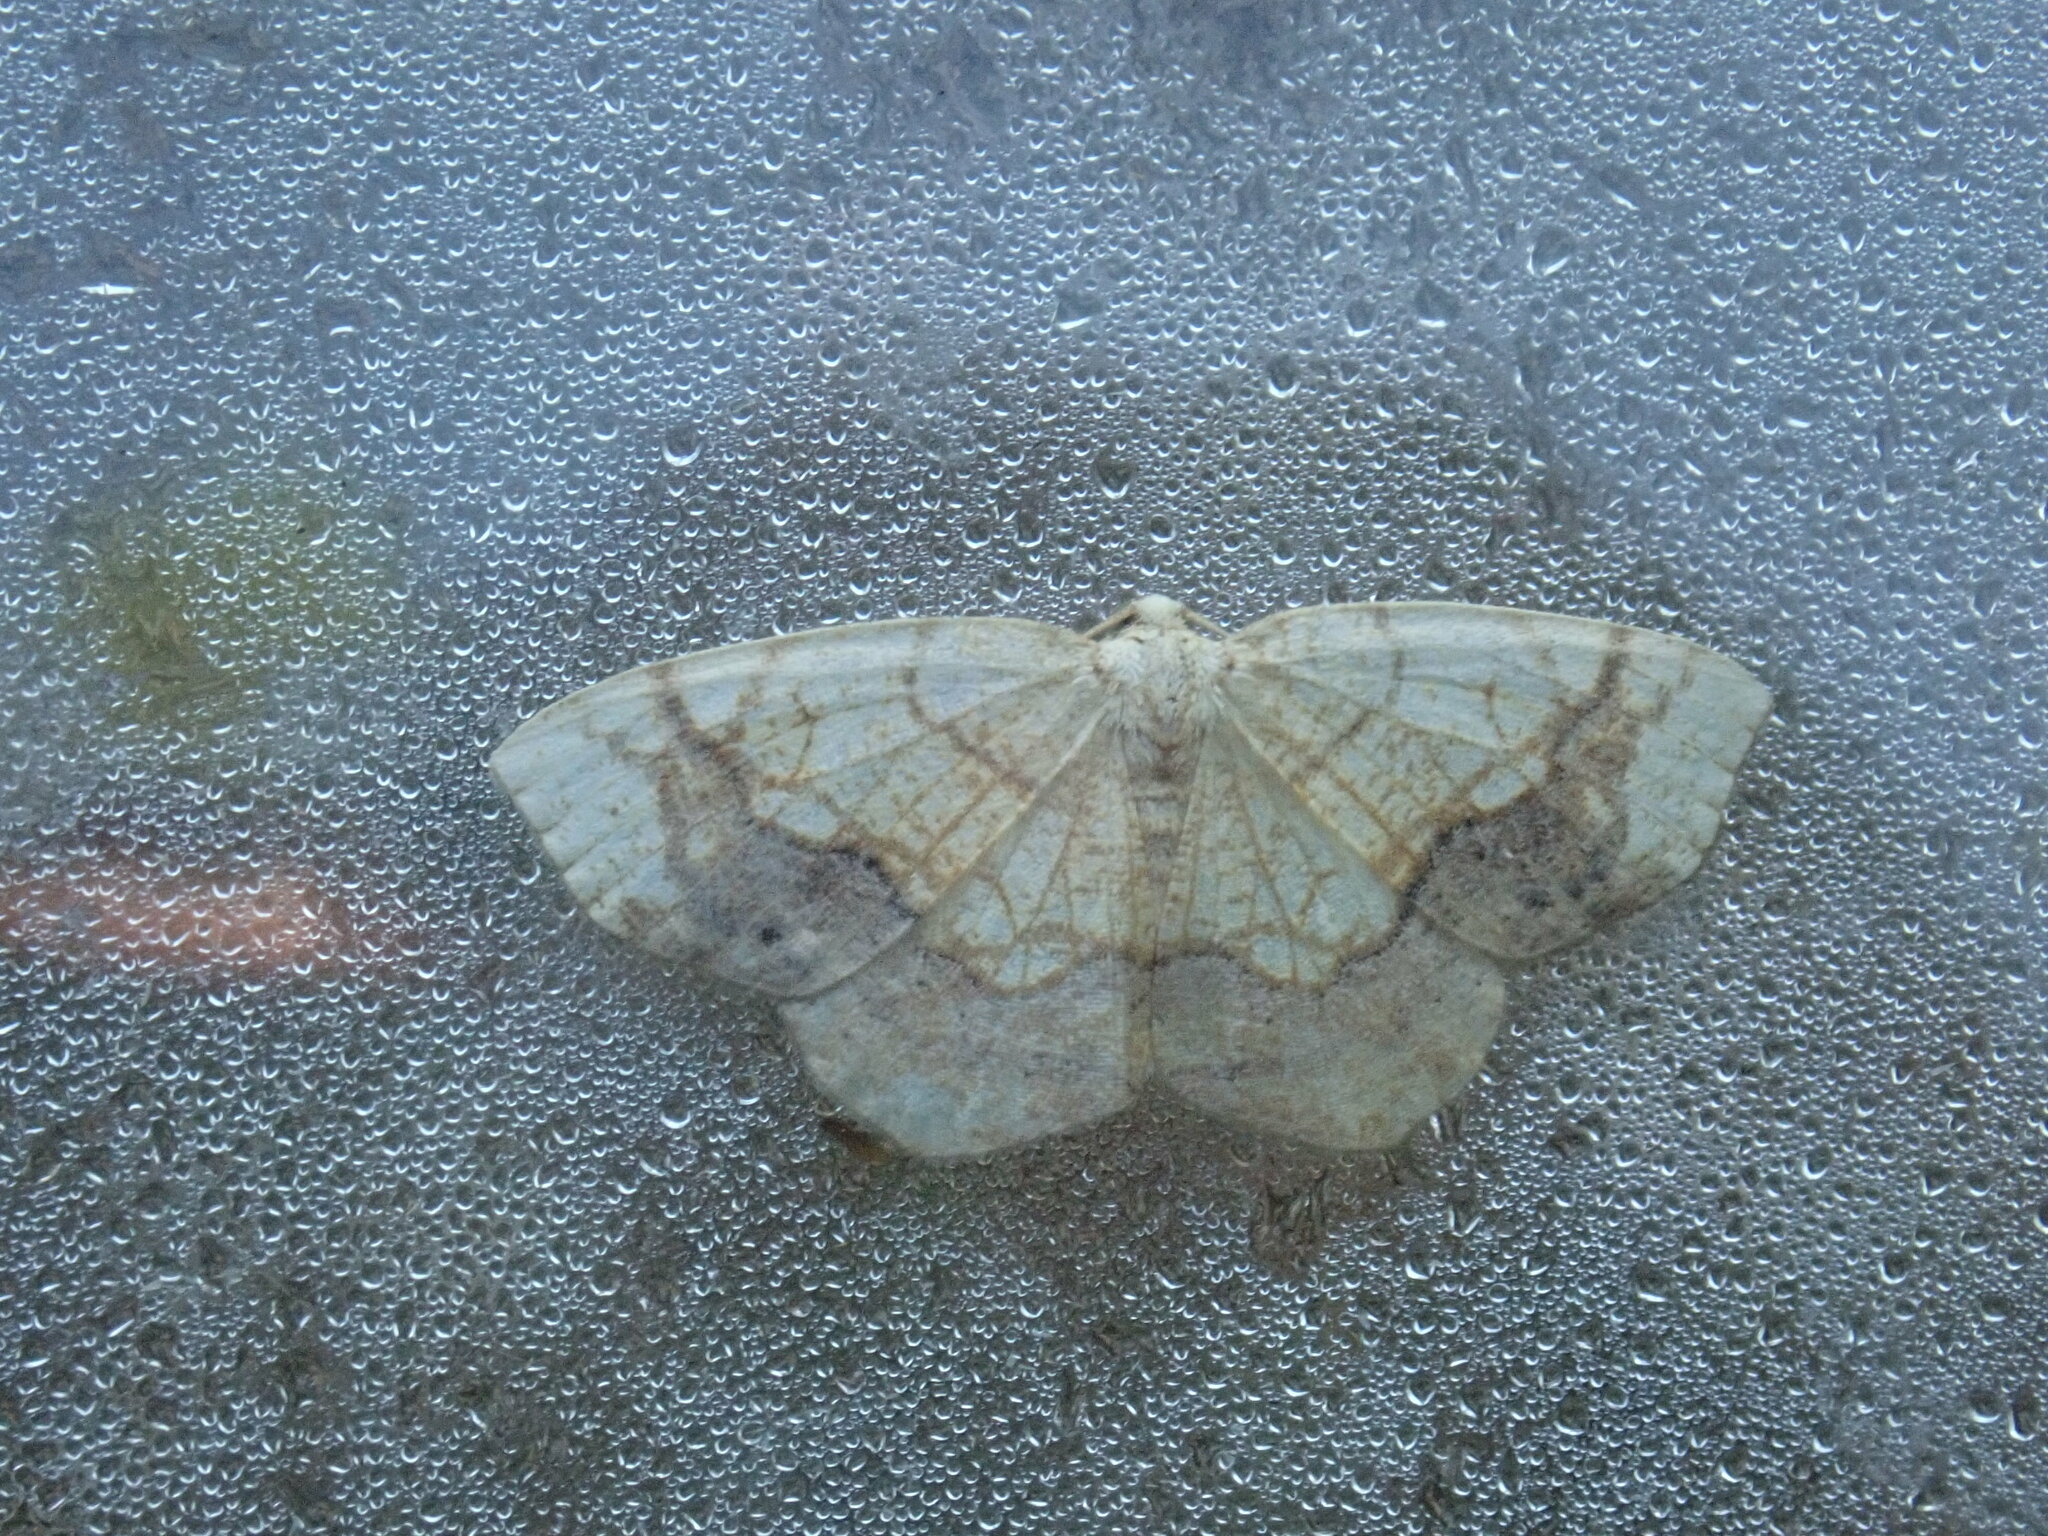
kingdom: Animalia
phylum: Arthropoda
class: Insecta
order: Lepidoptera
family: Geometridae
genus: Nematocampa
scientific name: Nematocampa resistaria
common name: Horned spanworm moth
